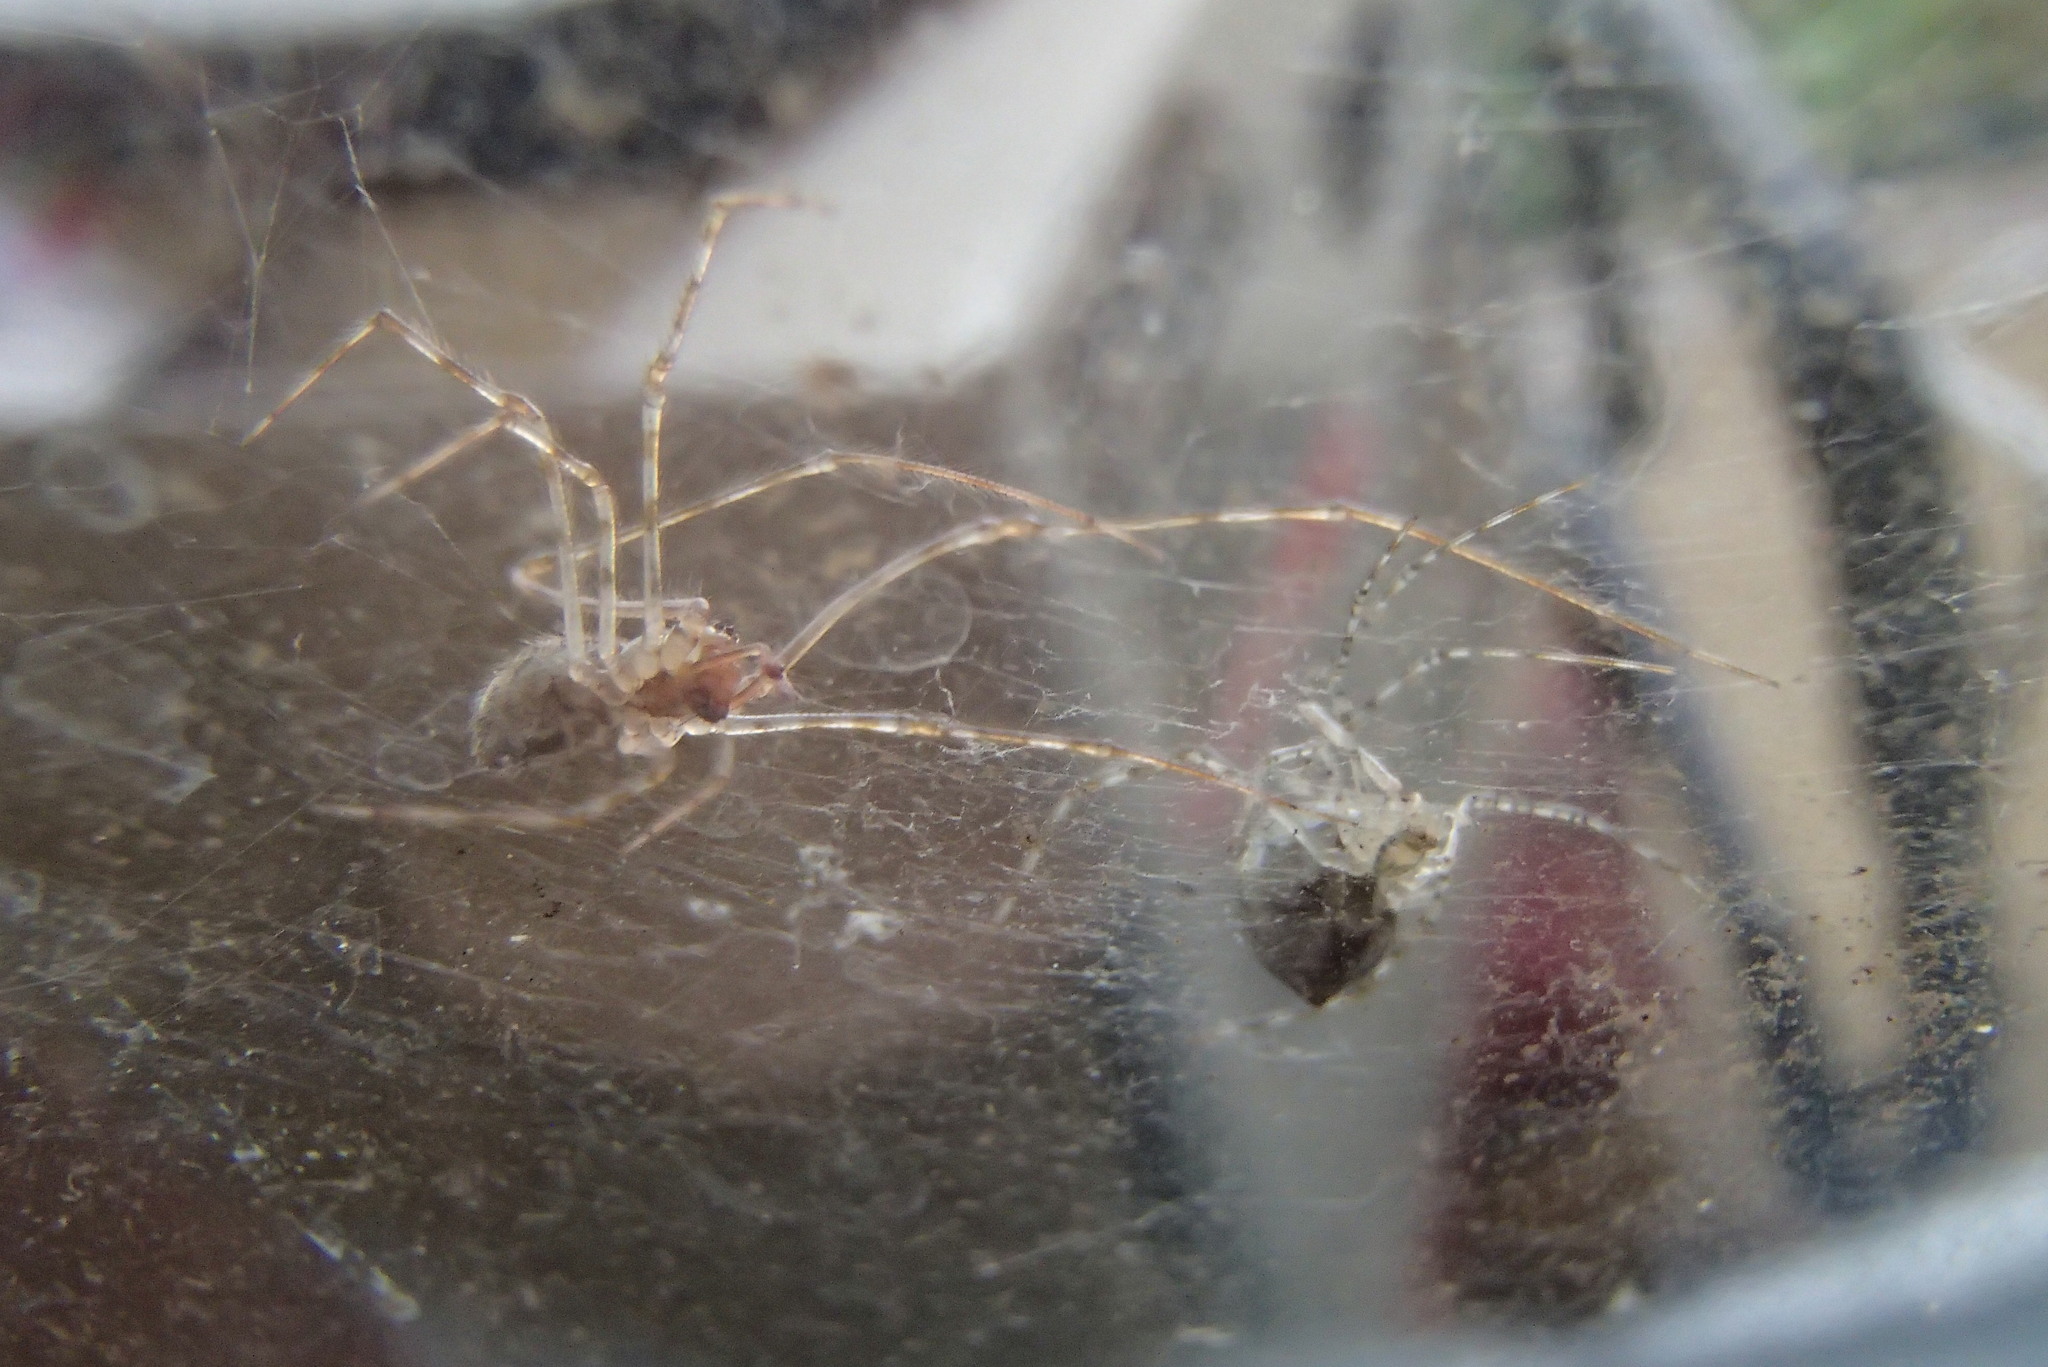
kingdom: Animalia
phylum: Arthropoda
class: Arachnida
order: Araneae
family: Theridiidae
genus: Cryptachaea
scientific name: Cryptachaea gigantipes
